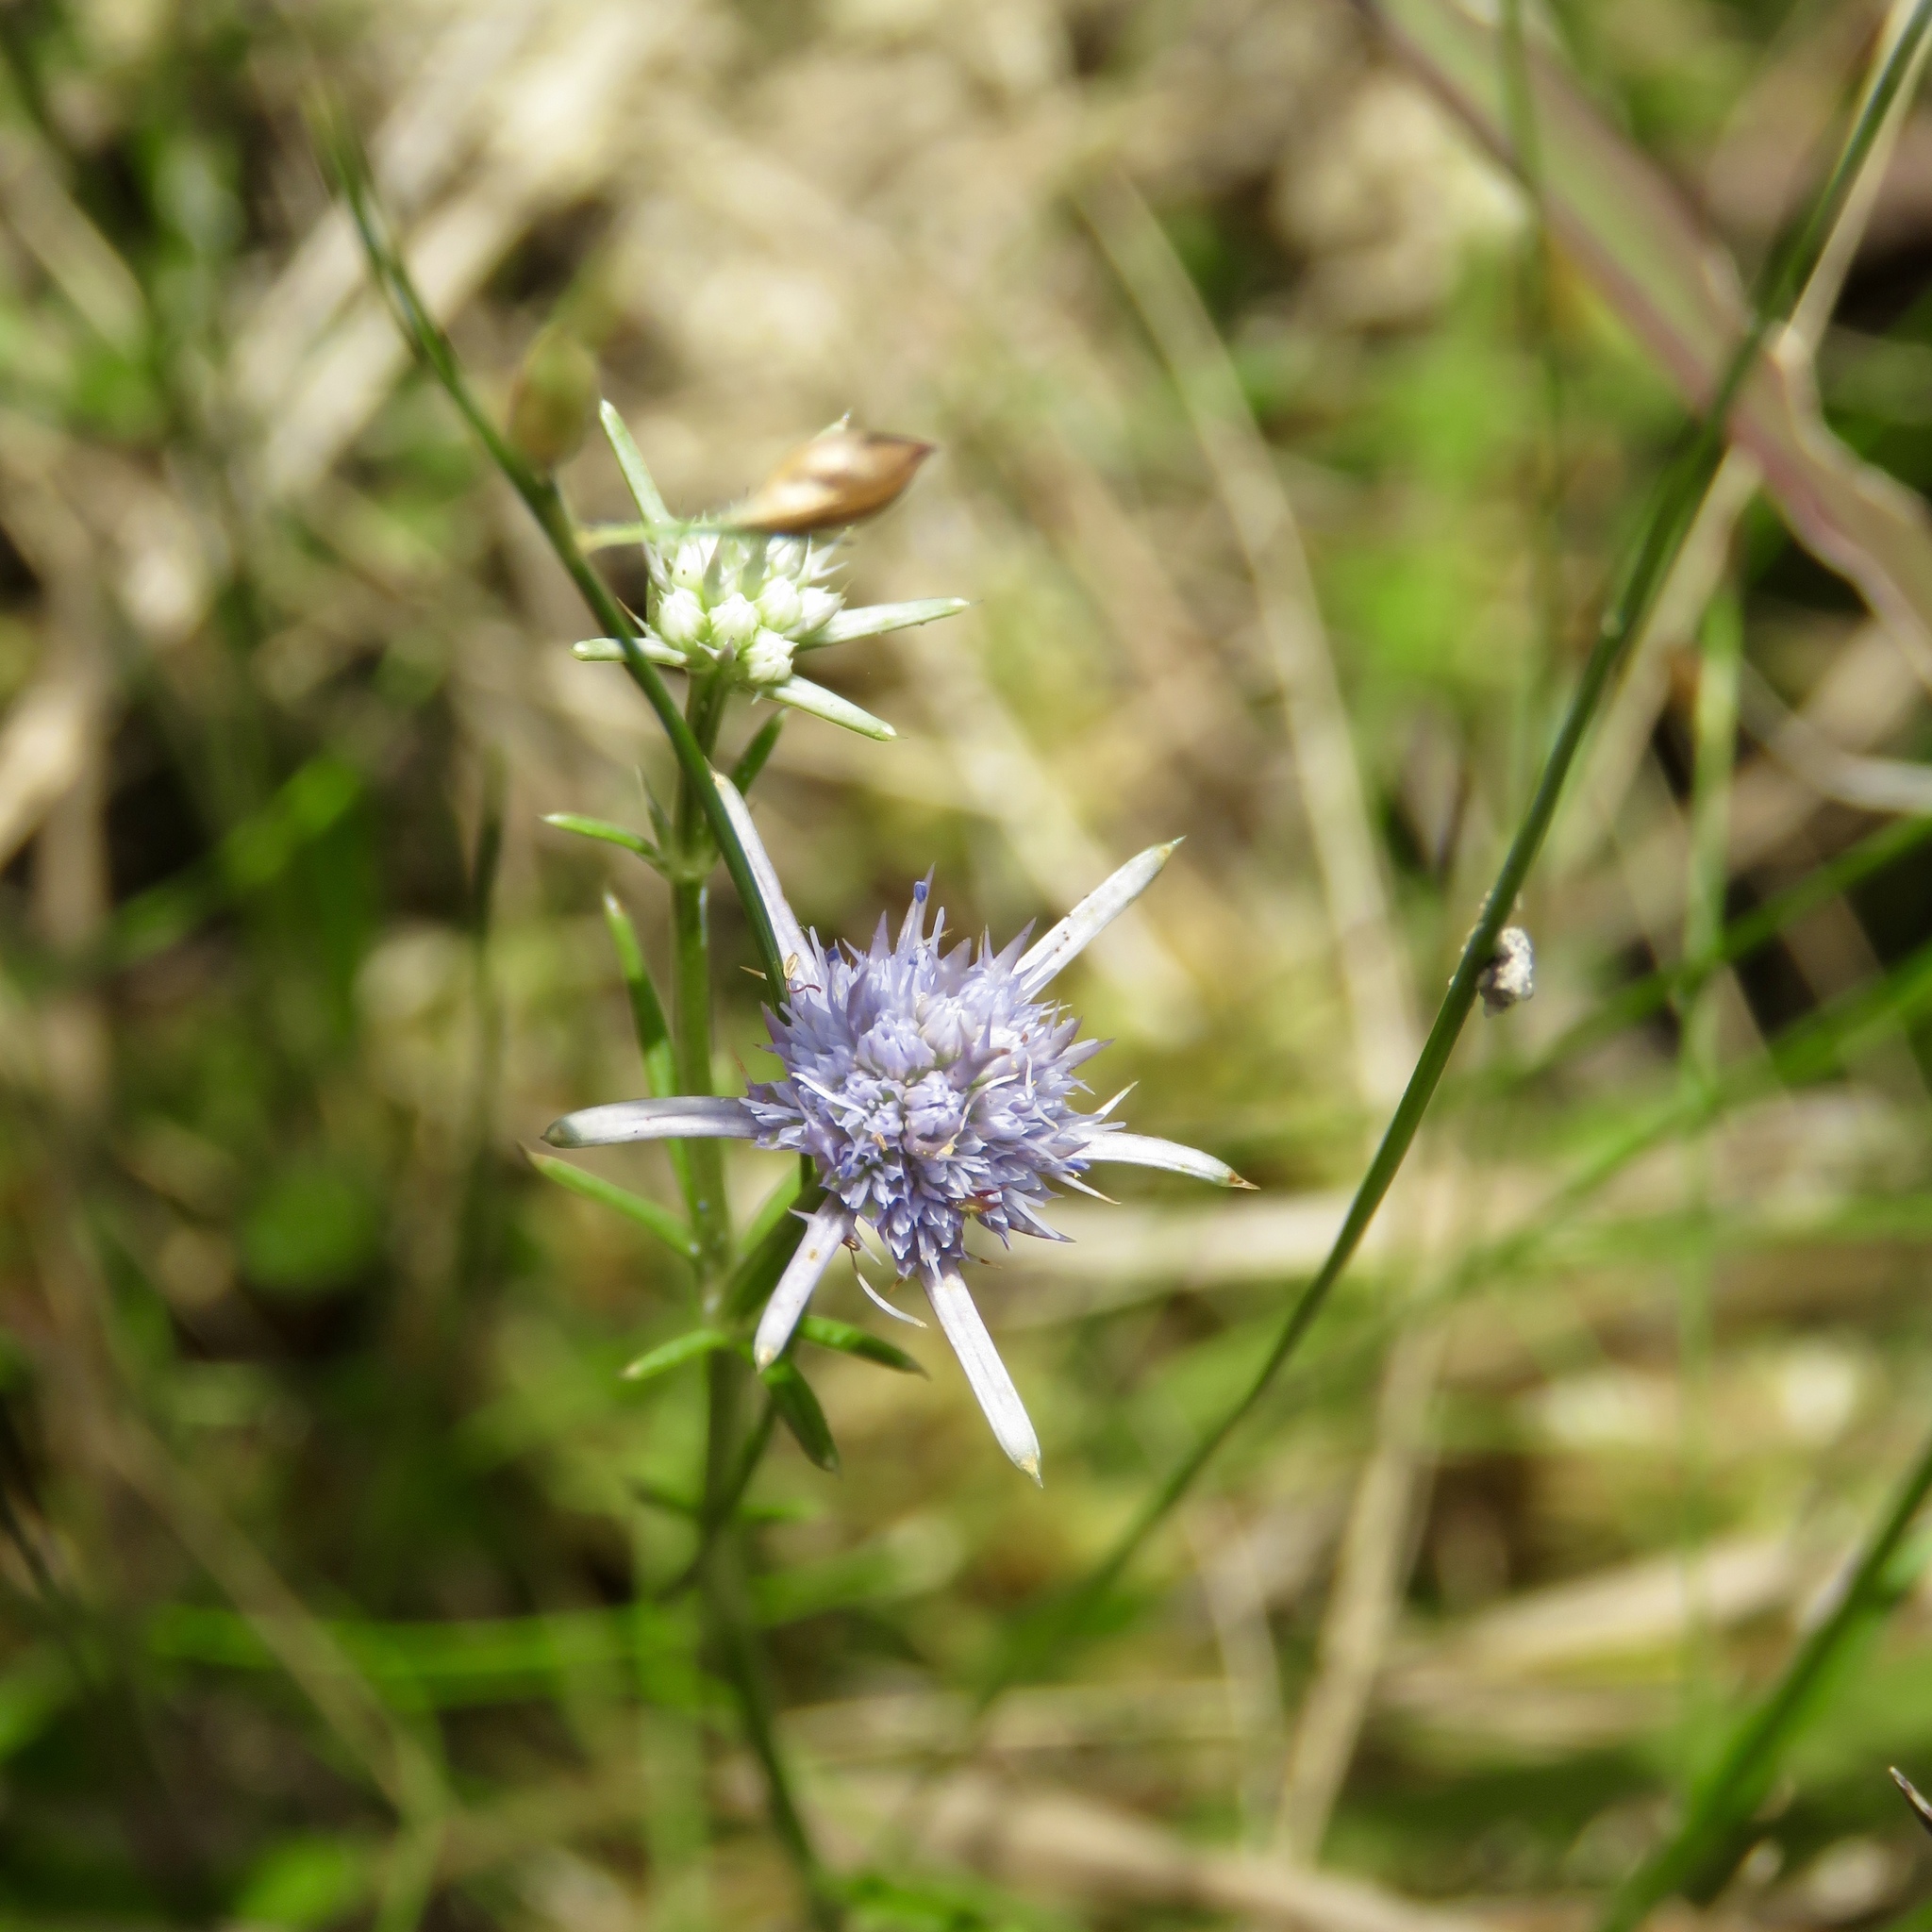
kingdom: Plantae
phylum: Tracheophyta
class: Magnoliopsida
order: Apiales
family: Apiaceae
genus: Eryngium
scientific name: Eryngium integrifolium
